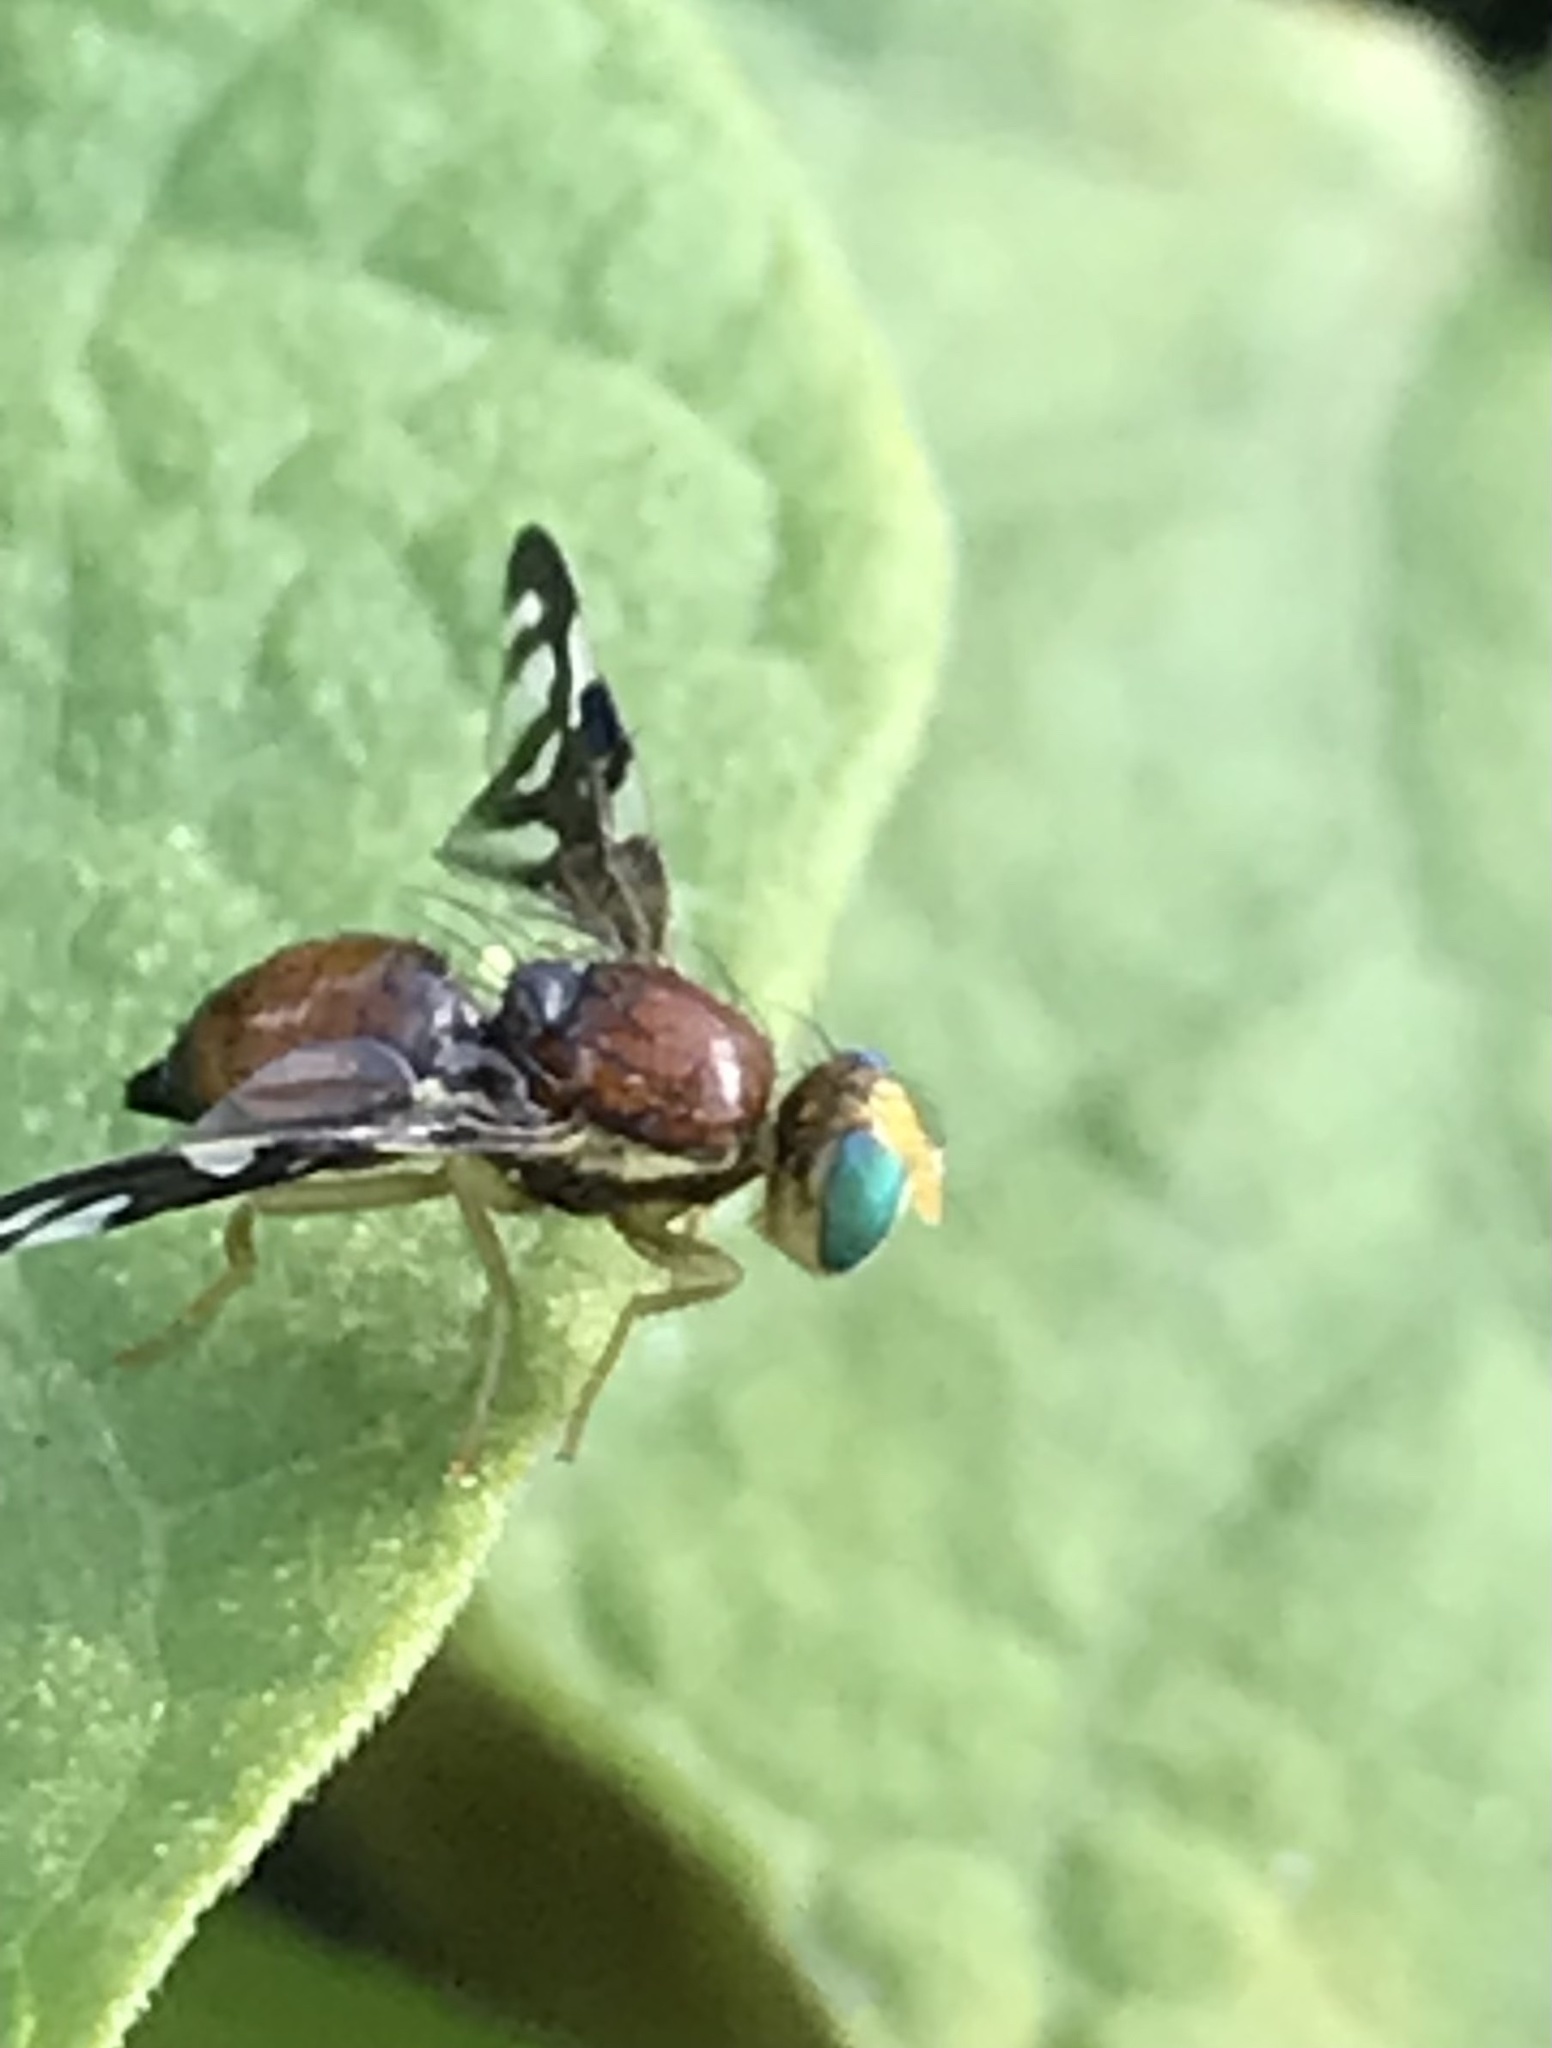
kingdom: Animalia
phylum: Arthropoda
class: Insecta
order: Diptera
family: Tephritidae
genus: Euleia
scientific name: Euleia heraclei
